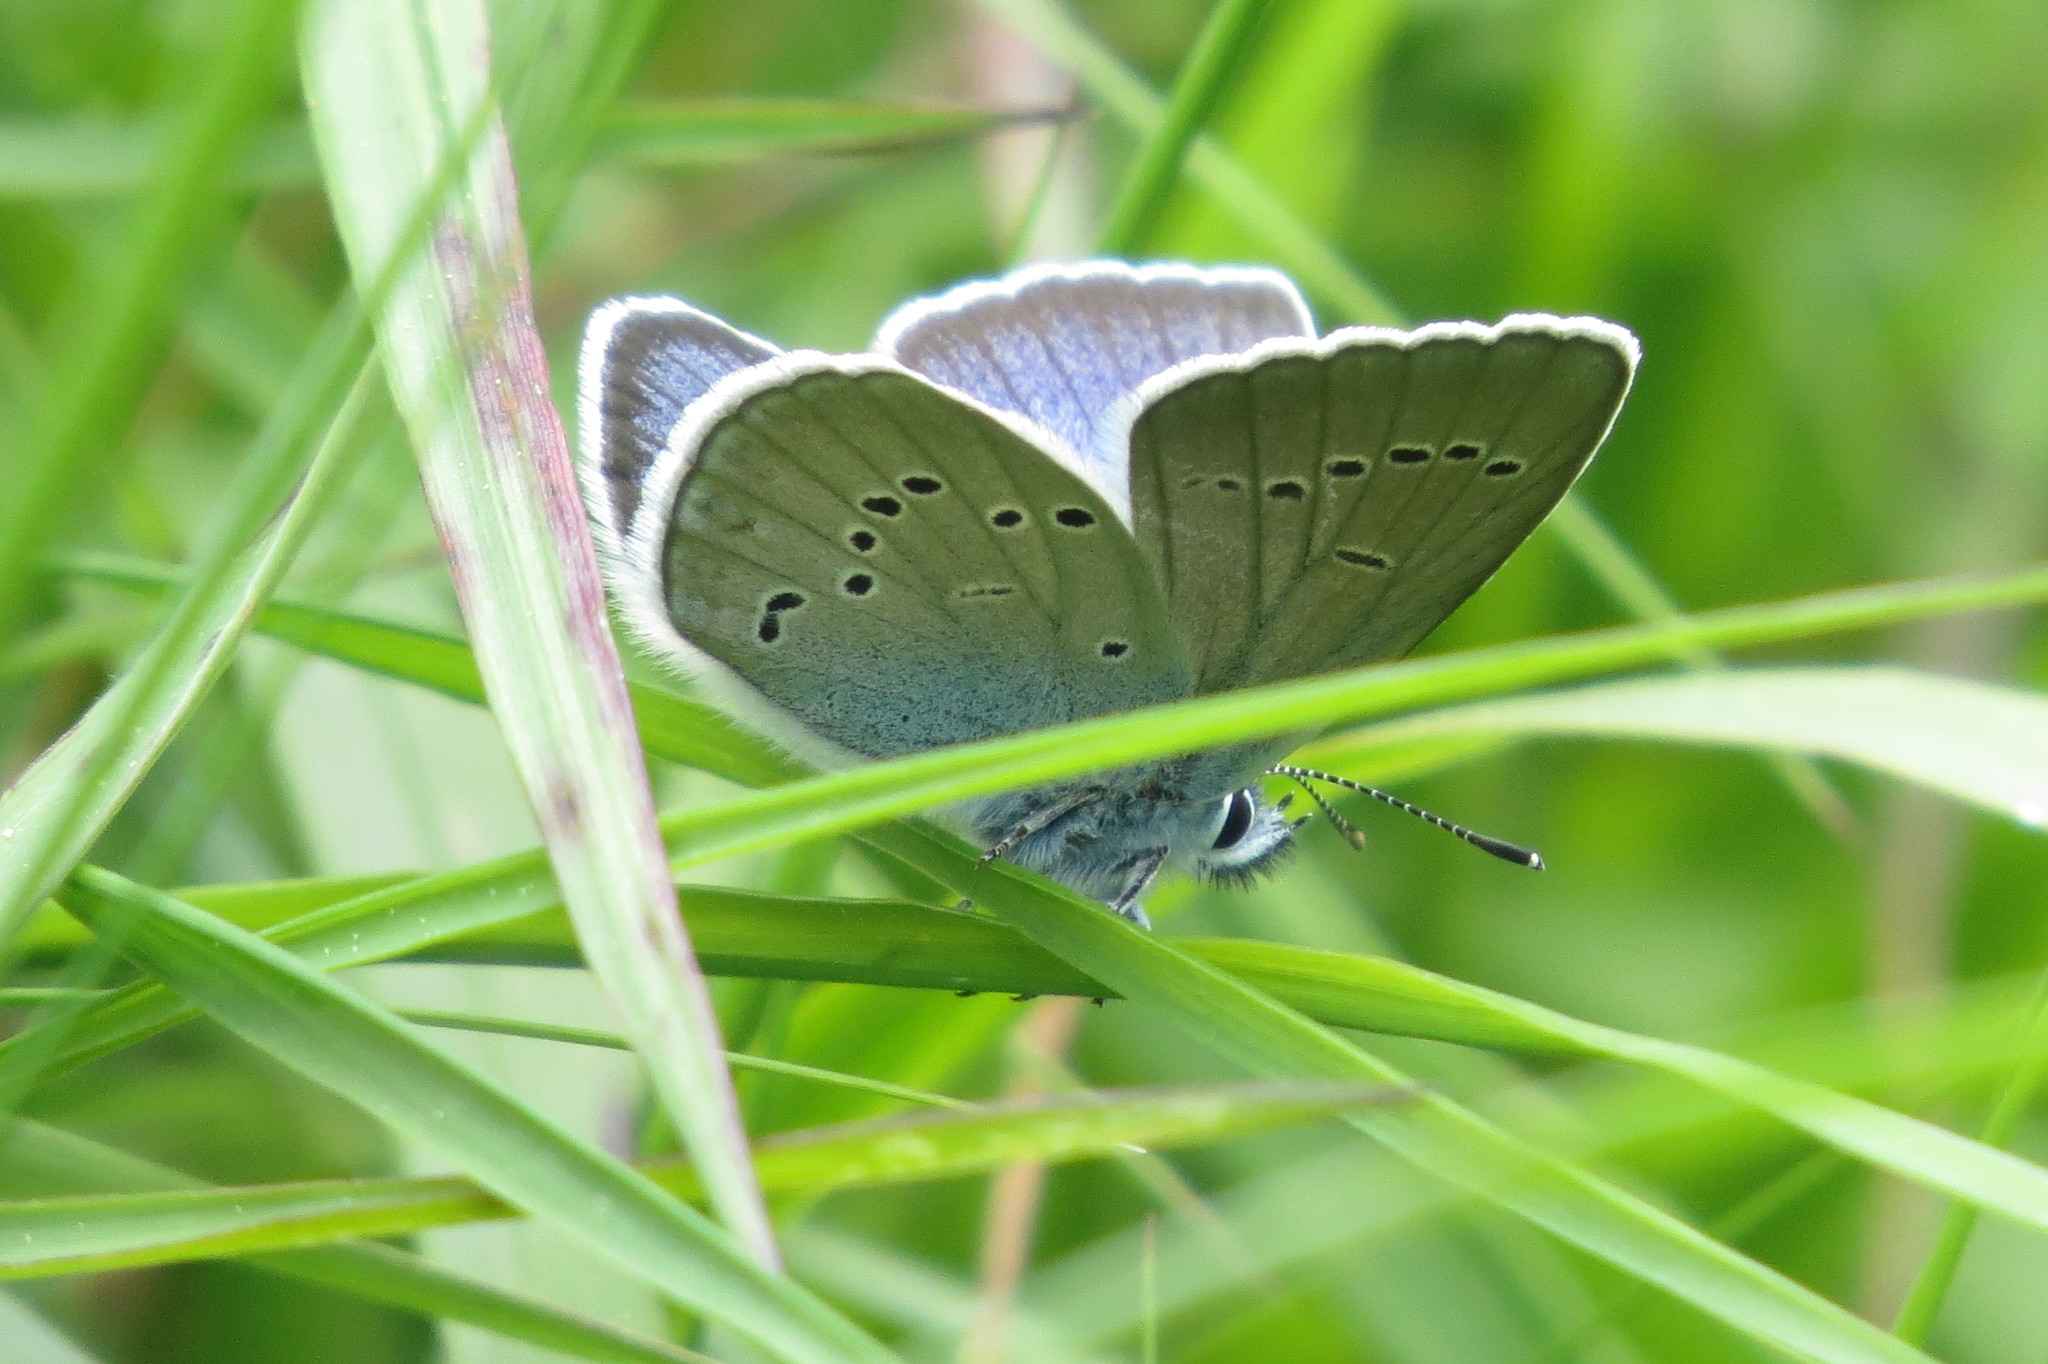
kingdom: Animalia
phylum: Arthropoda
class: Insecta
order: Lepidoptera
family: Lycaenidae
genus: Cyaniris
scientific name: Cyaniris semiargus
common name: Mazarine blue
